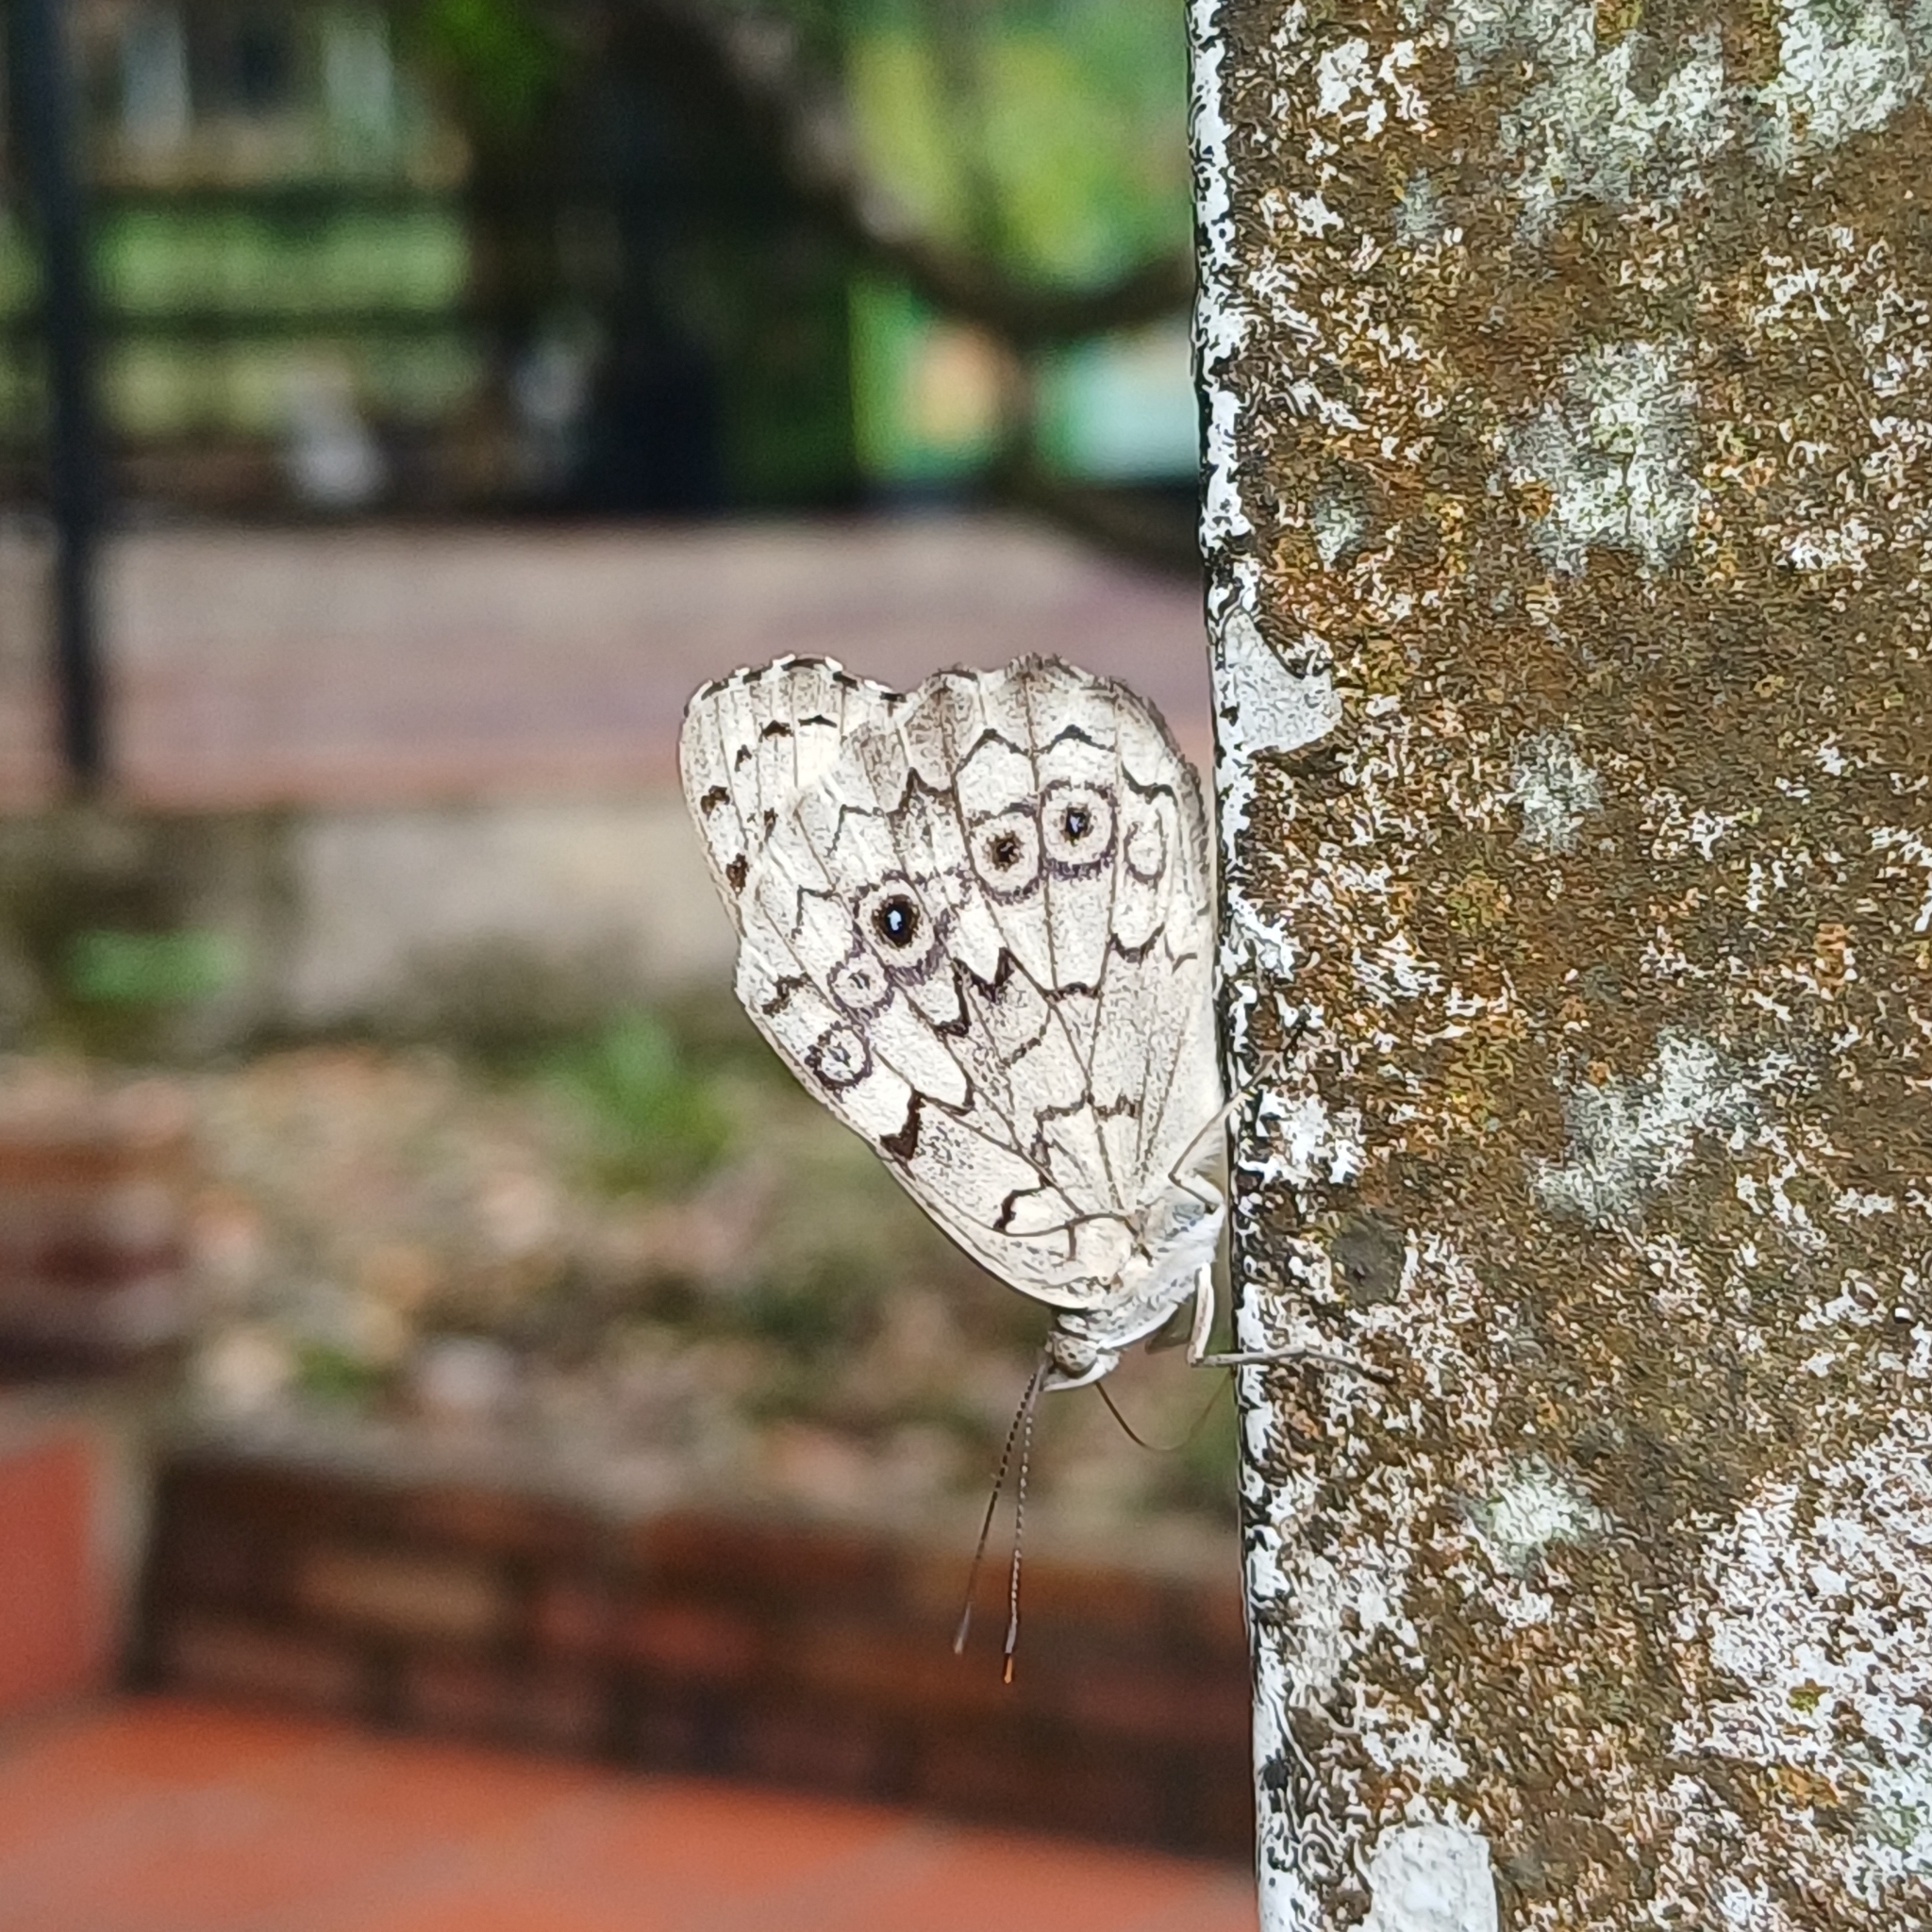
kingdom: Animalia
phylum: Arthropoda
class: Insecta
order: Lepidoptera
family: Nymphalidae
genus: Eunica
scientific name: Eunica macris
